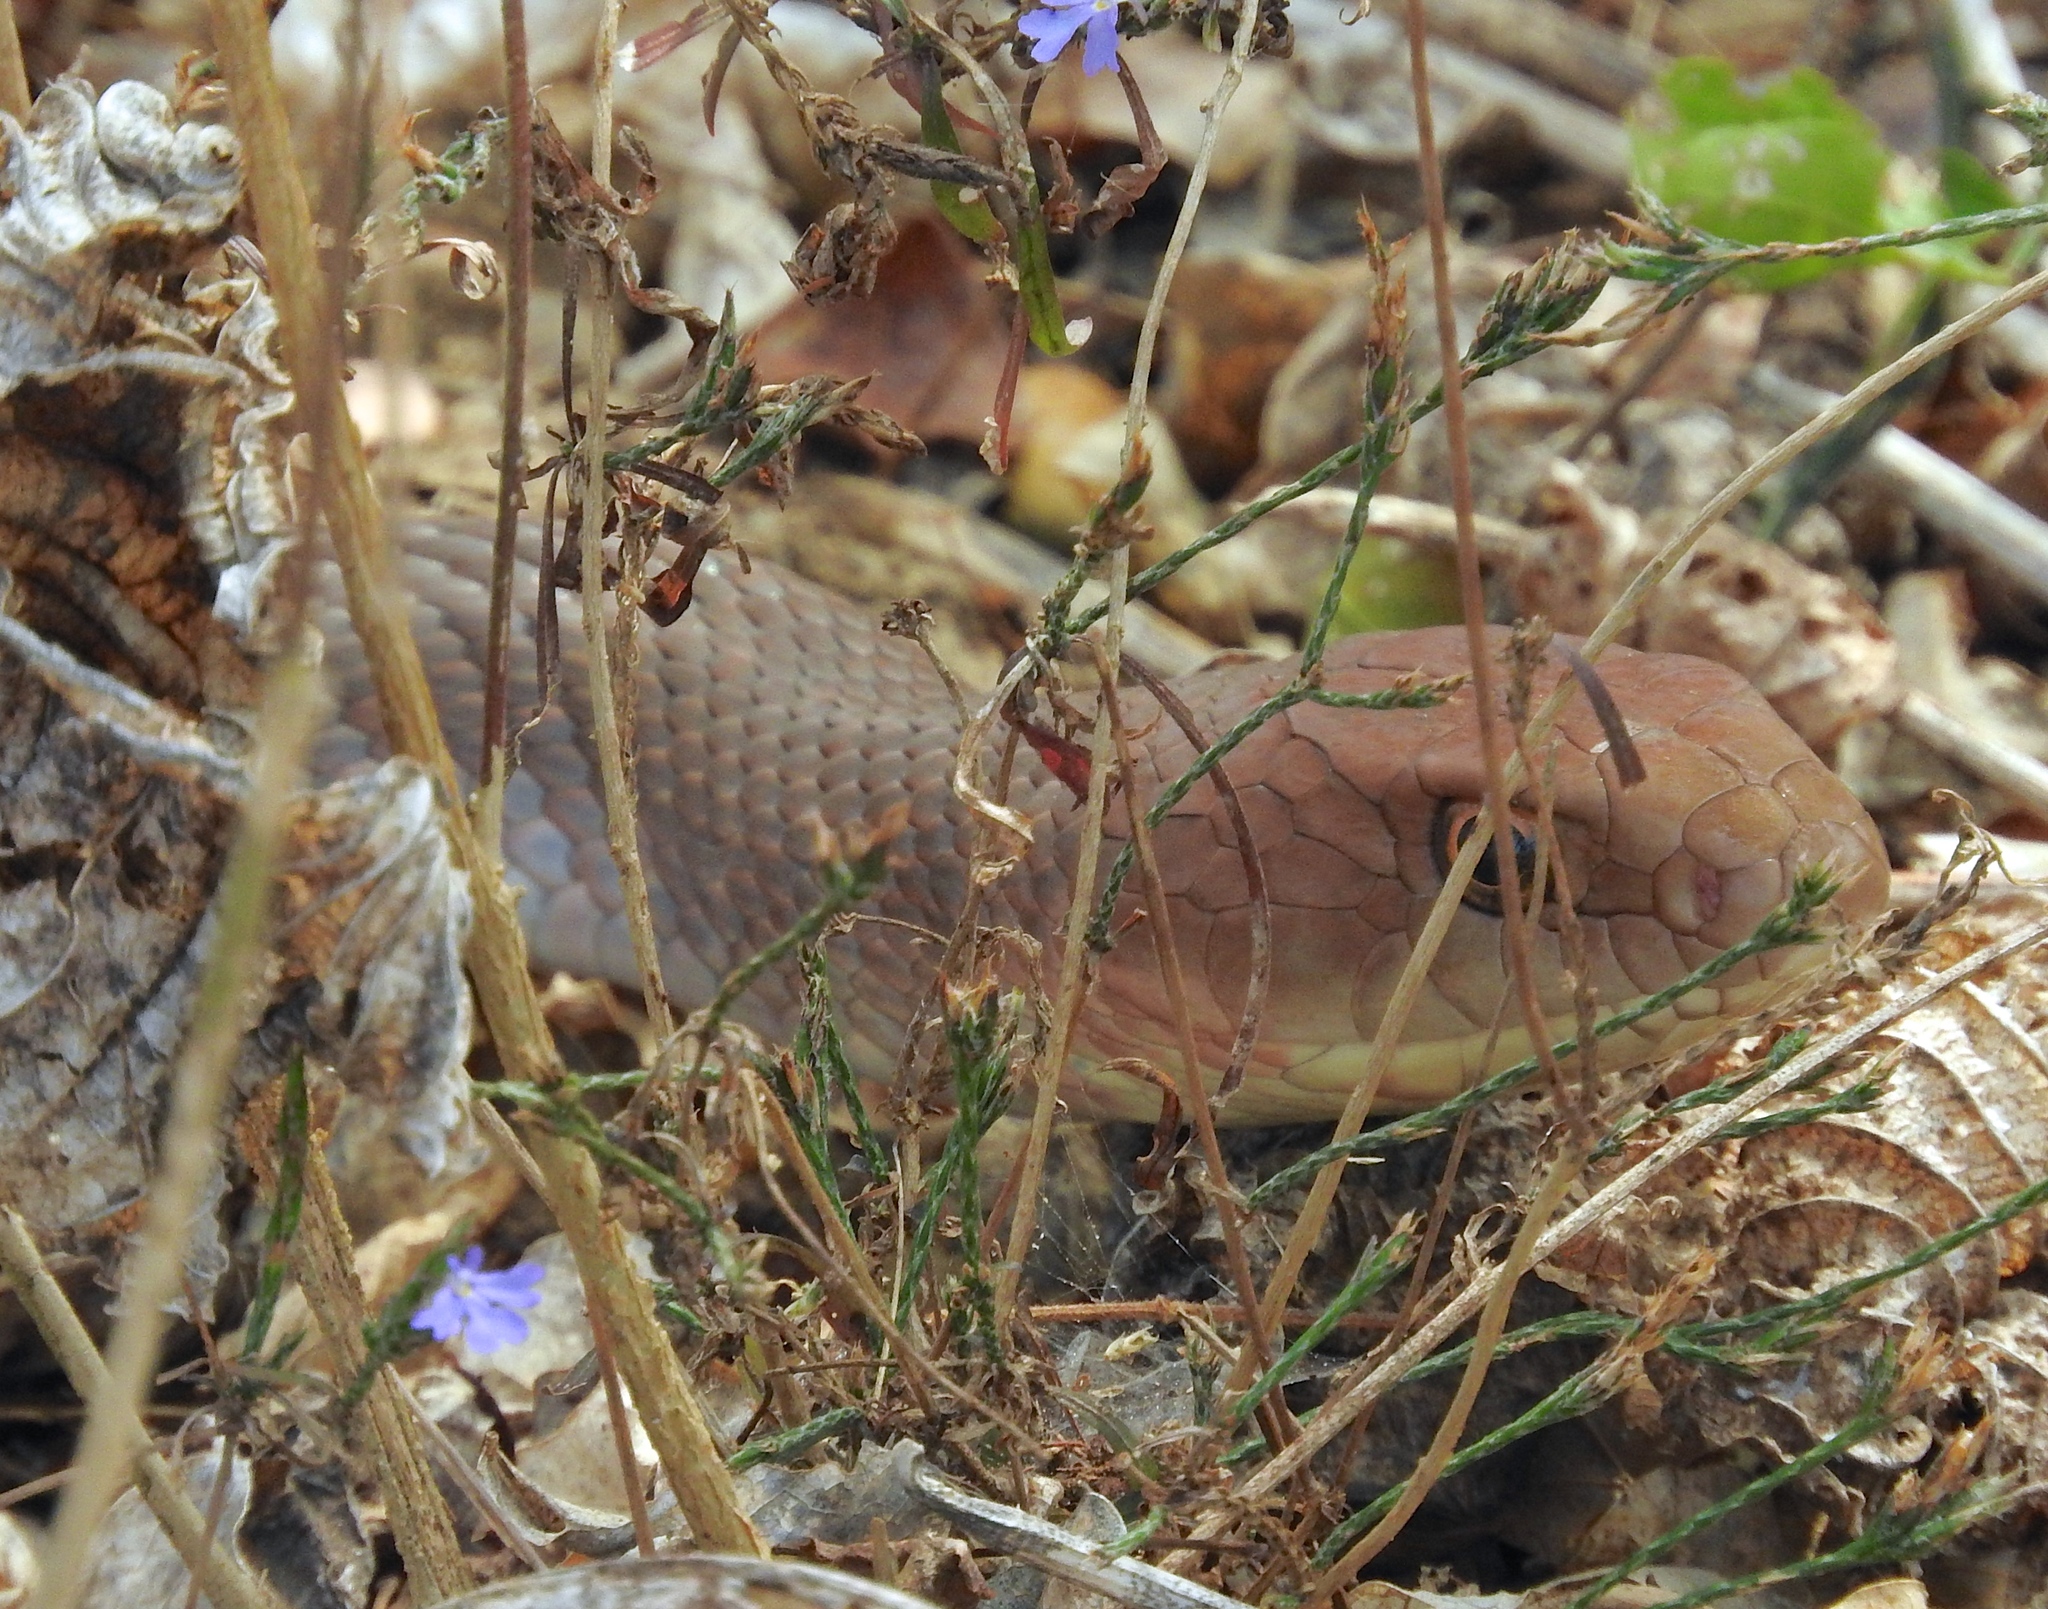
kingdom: Animalia
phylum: Chordata
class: Squamata
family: Colubridae
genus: Masticophis
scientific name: Masticophis mentovarius
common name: Neotropical whip snake
